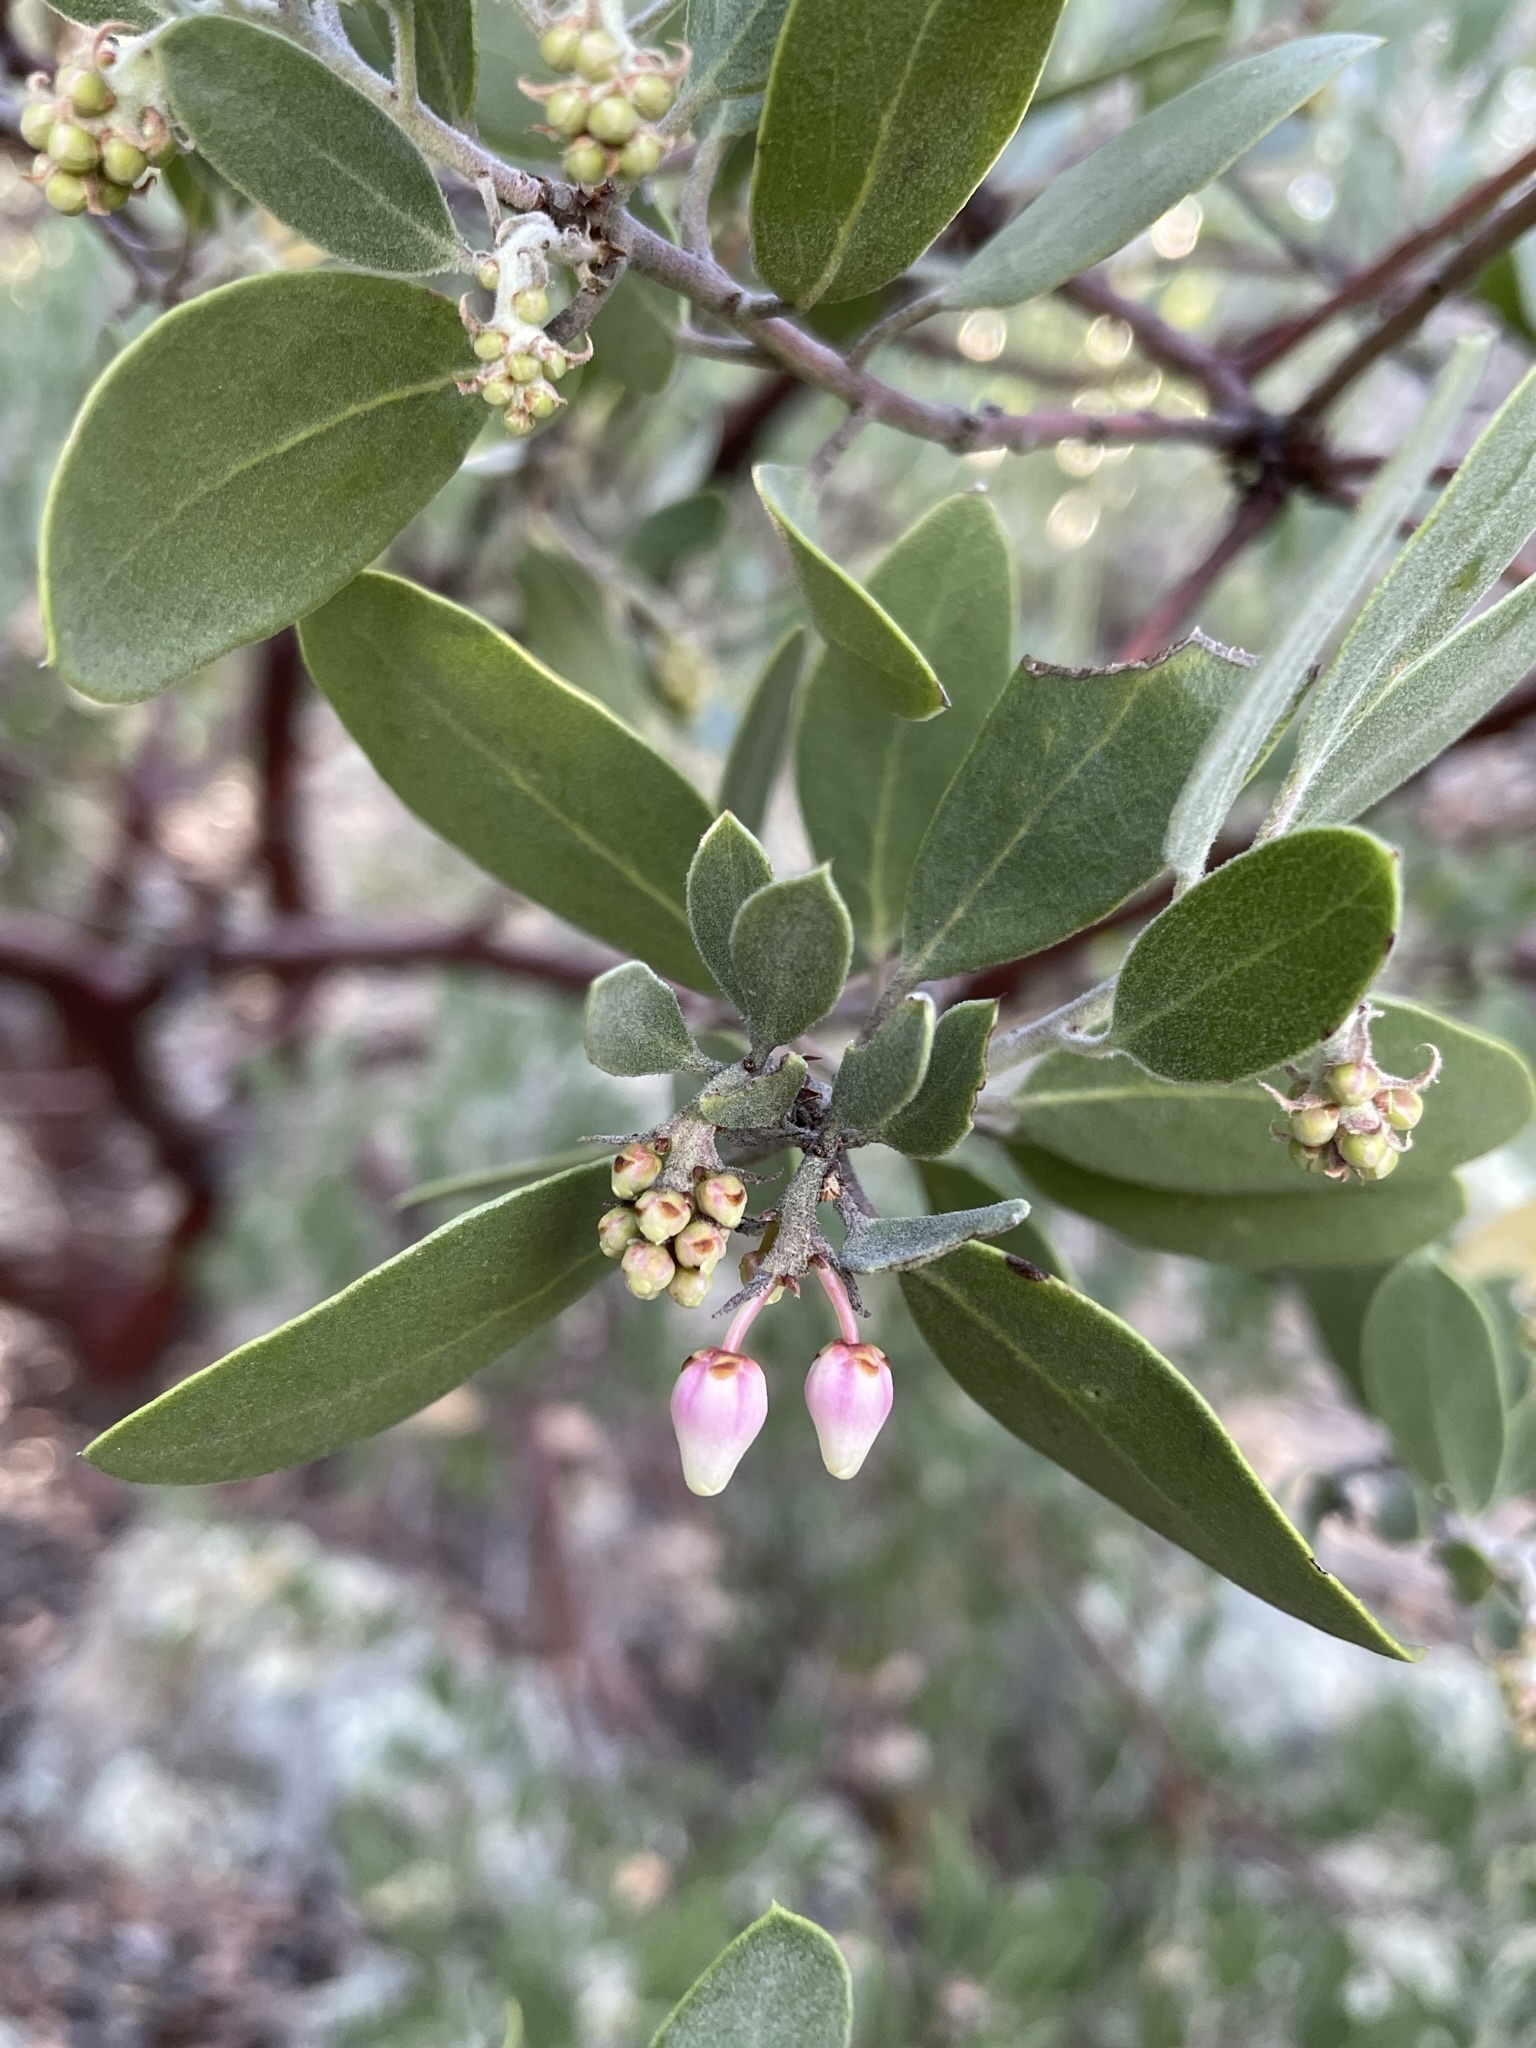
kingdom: Plantae
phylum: Tracheophyta
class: Magnoliopsida
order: Ericales
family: Ericaceae
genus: Arctostaphylos
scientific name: Arctostaphylos pungens
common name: Mexican manzanita
